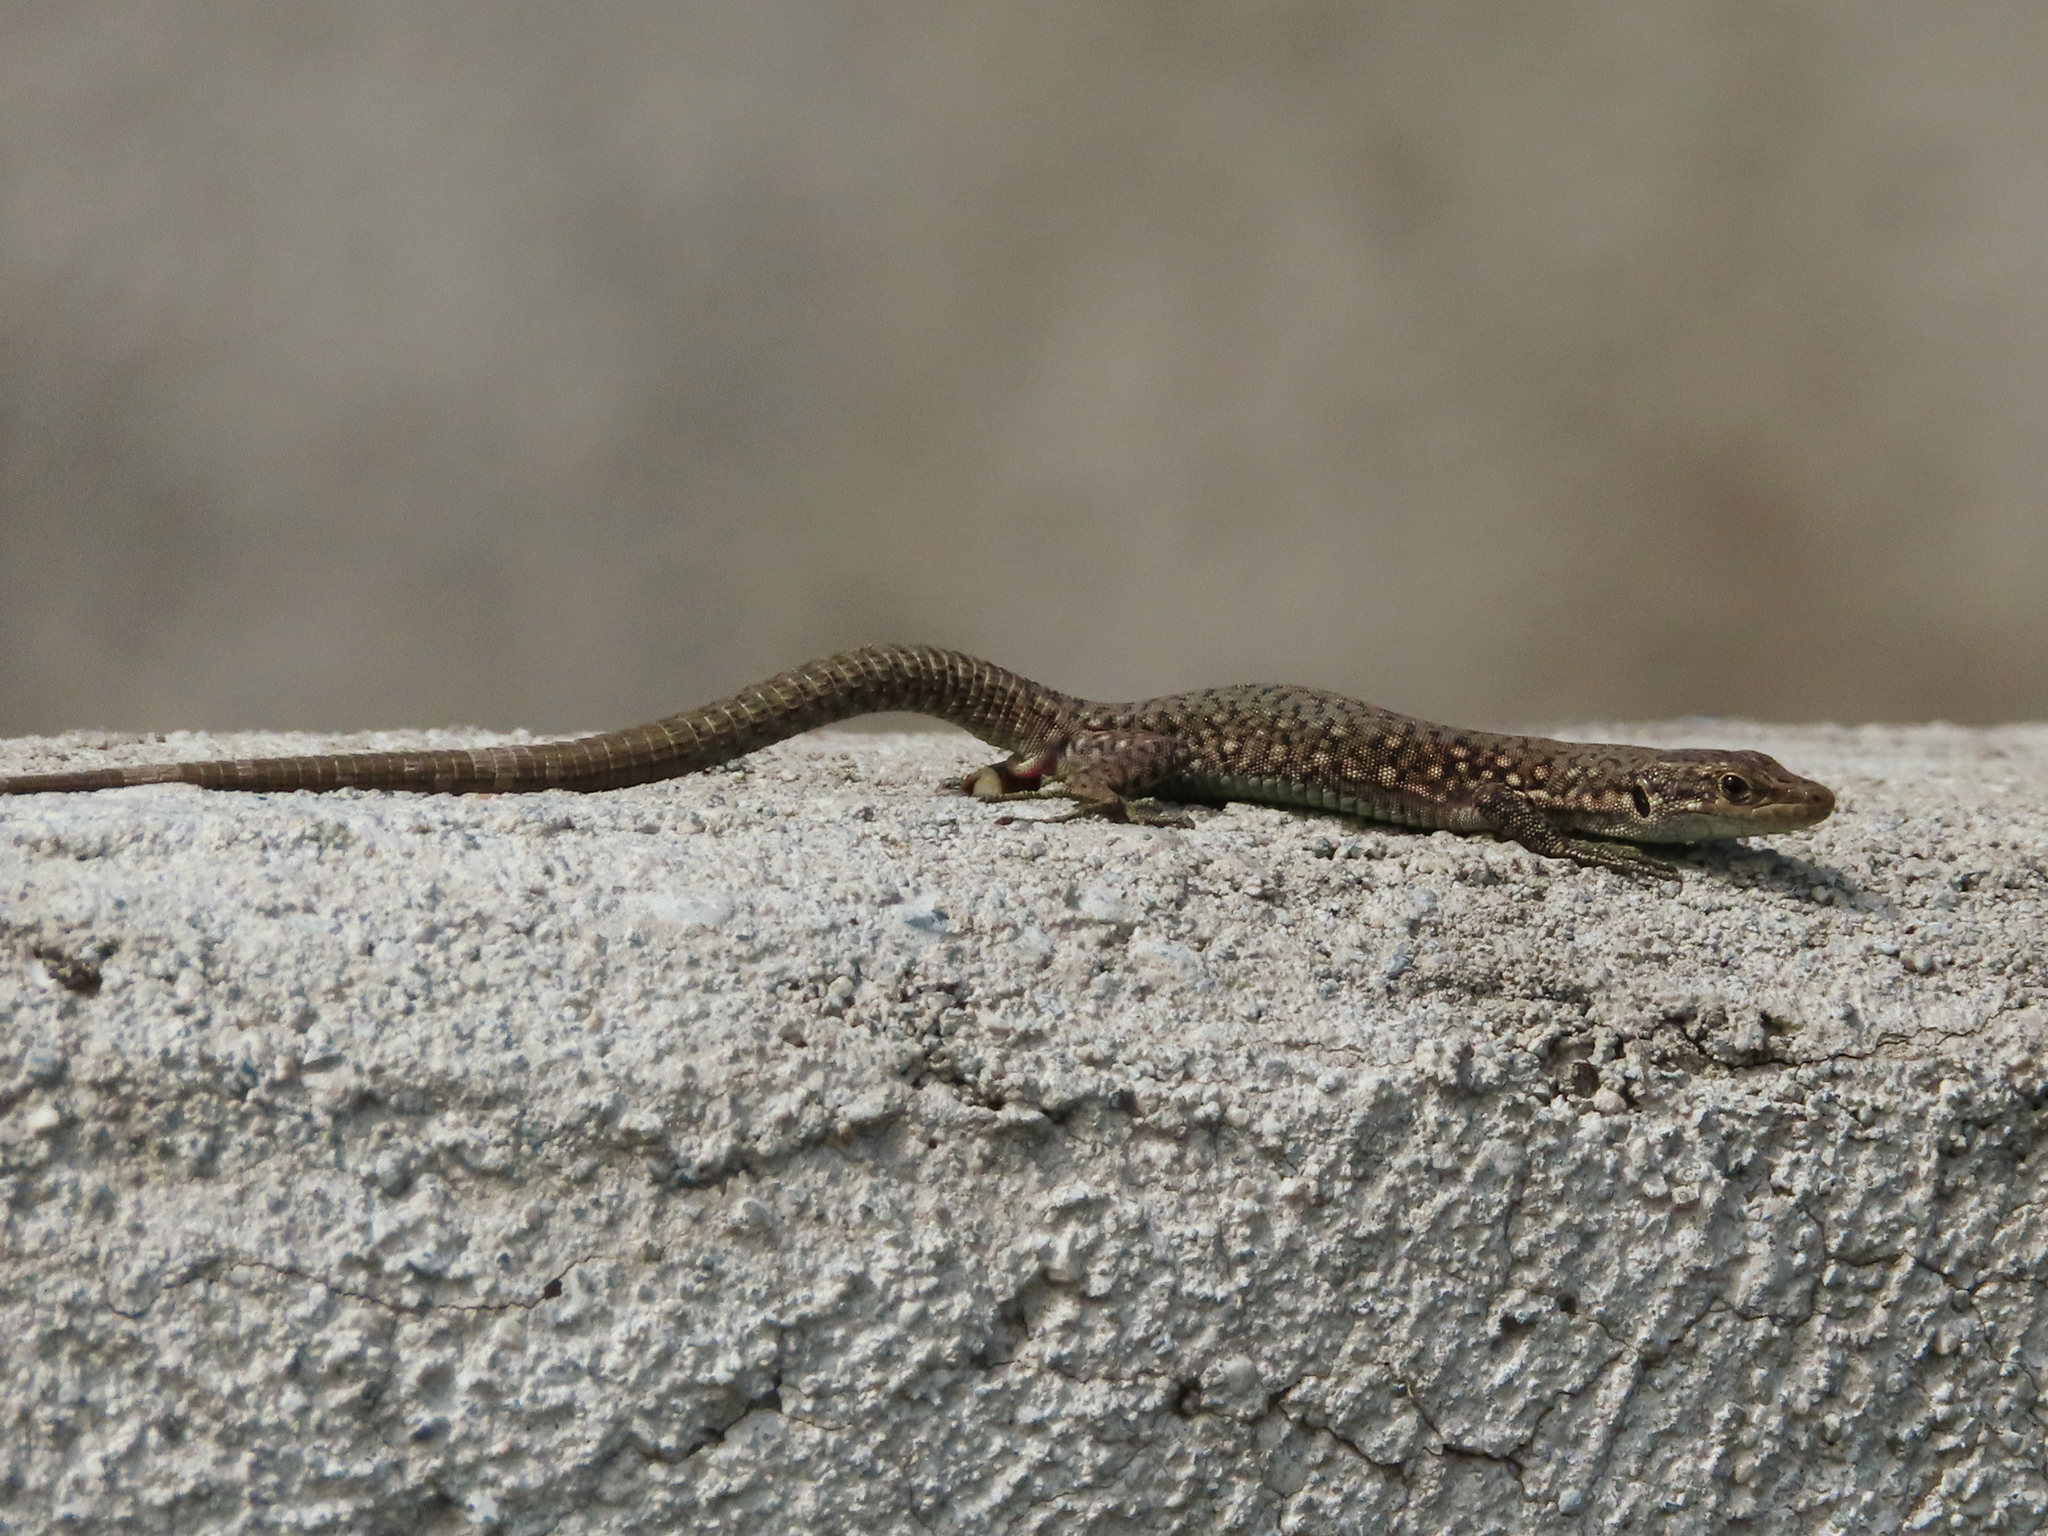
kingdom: Animalia
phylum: Chordata
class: Squamata
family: Lacertidae
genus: Darevskia
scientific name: Darevskia
